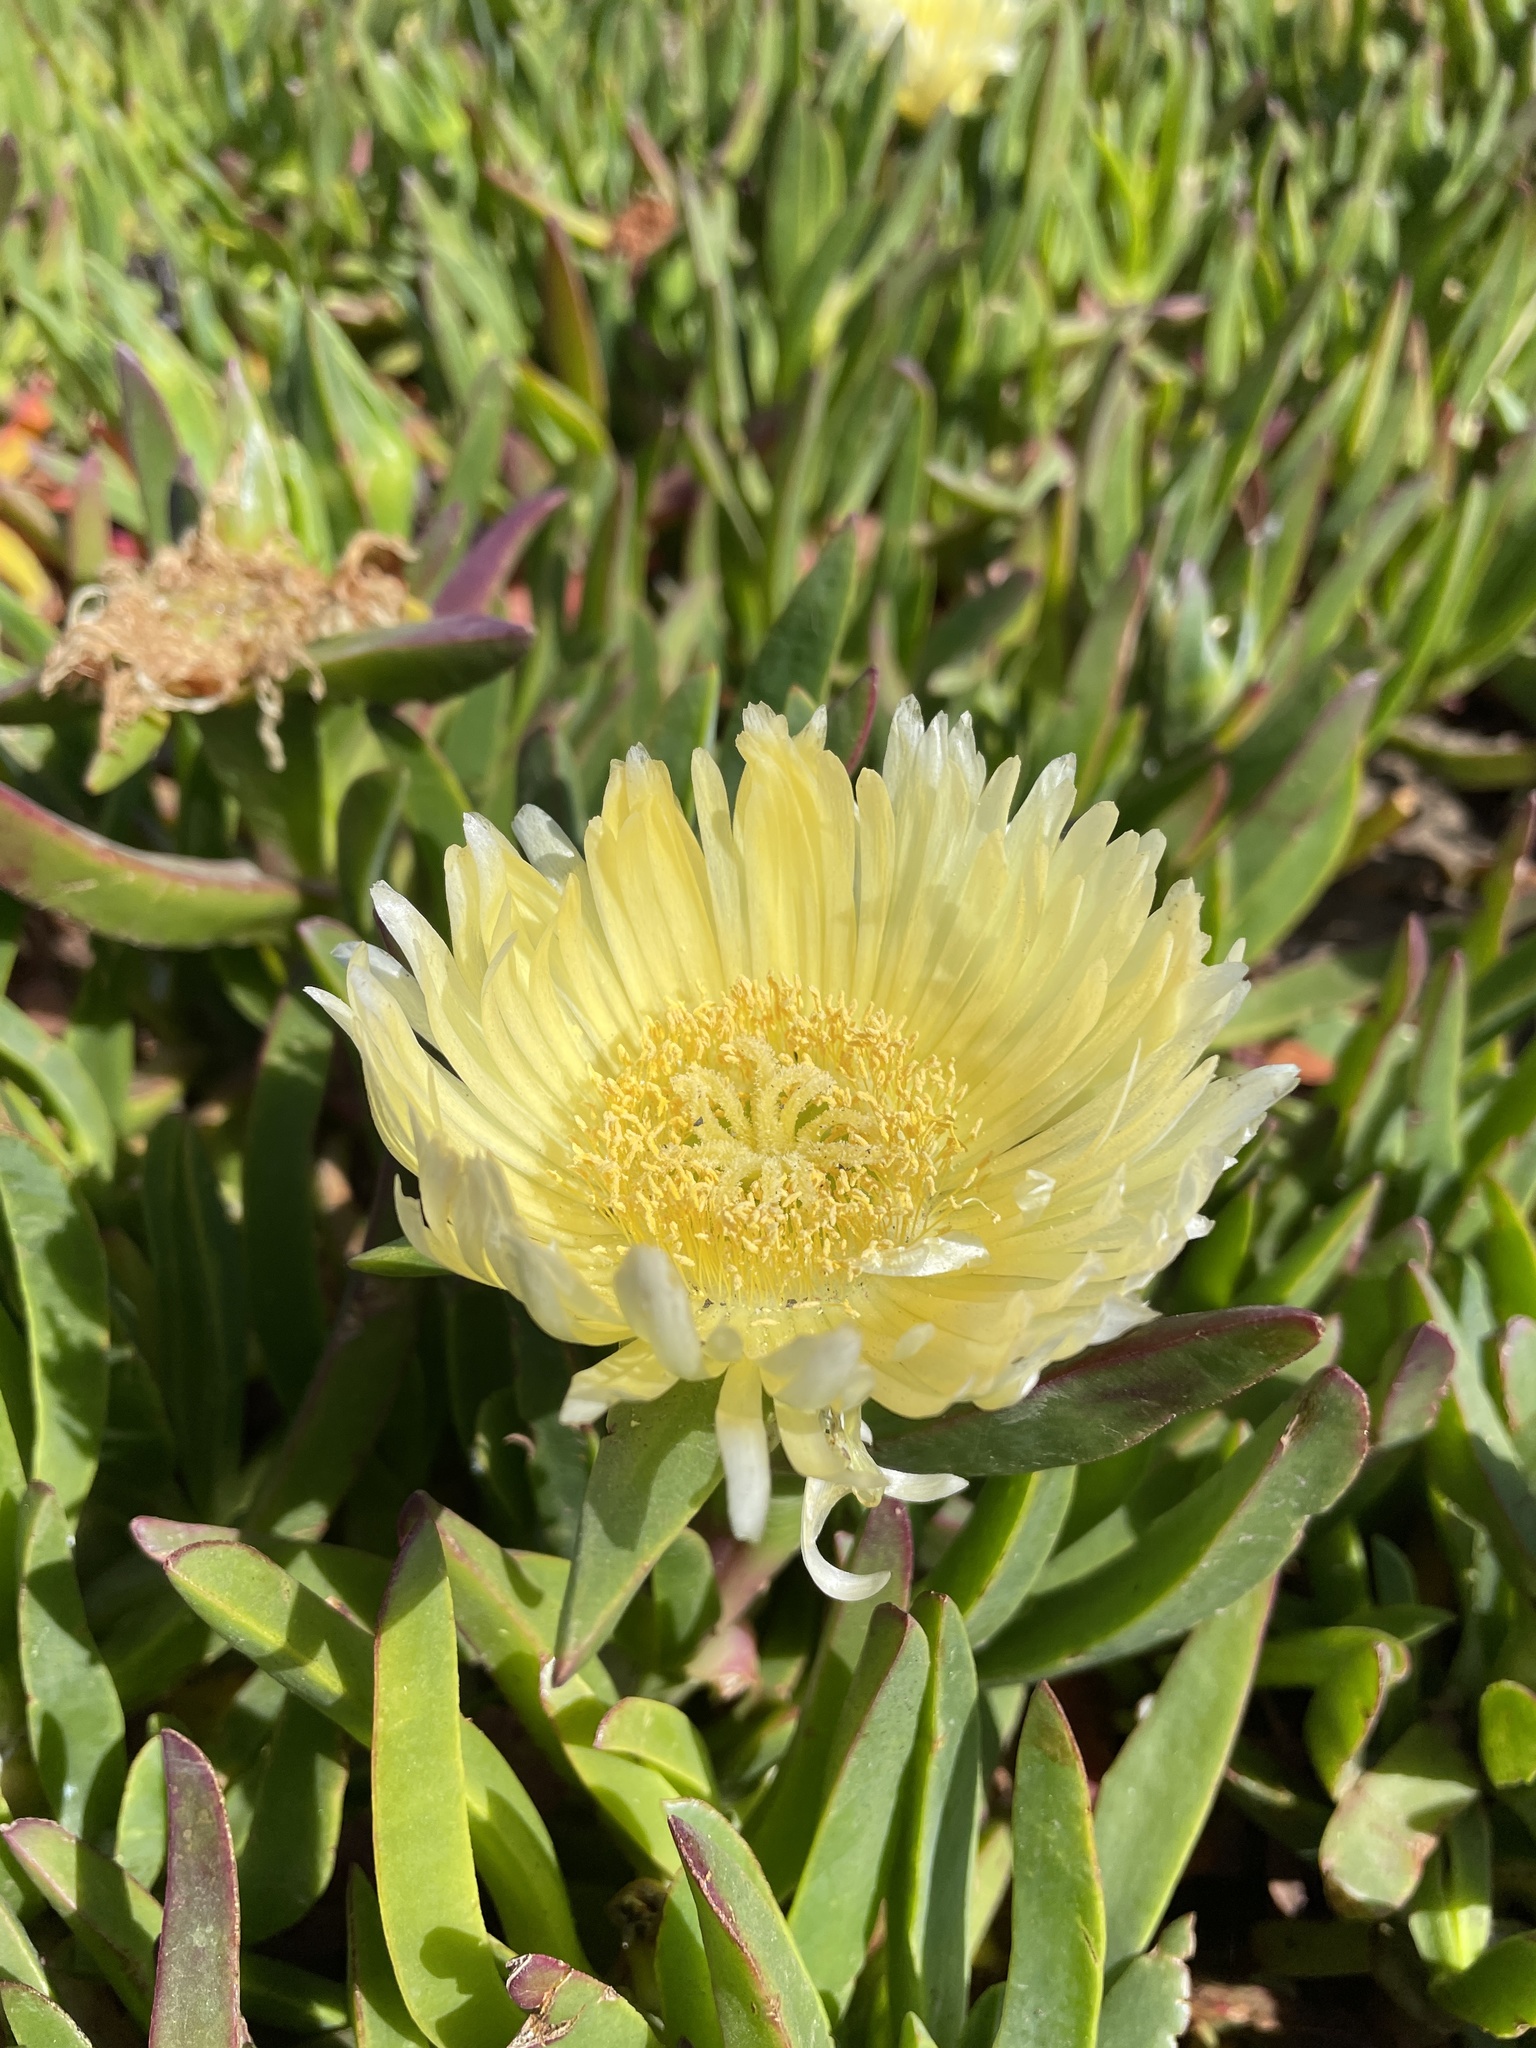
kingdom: Plantae
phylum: Tracheophyta
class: Magnoliopsida
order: Caryophyllales
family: Aizoaceae
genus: Carpobrotus
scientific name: Carpobrotus edulis
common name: Hottentot-fig
